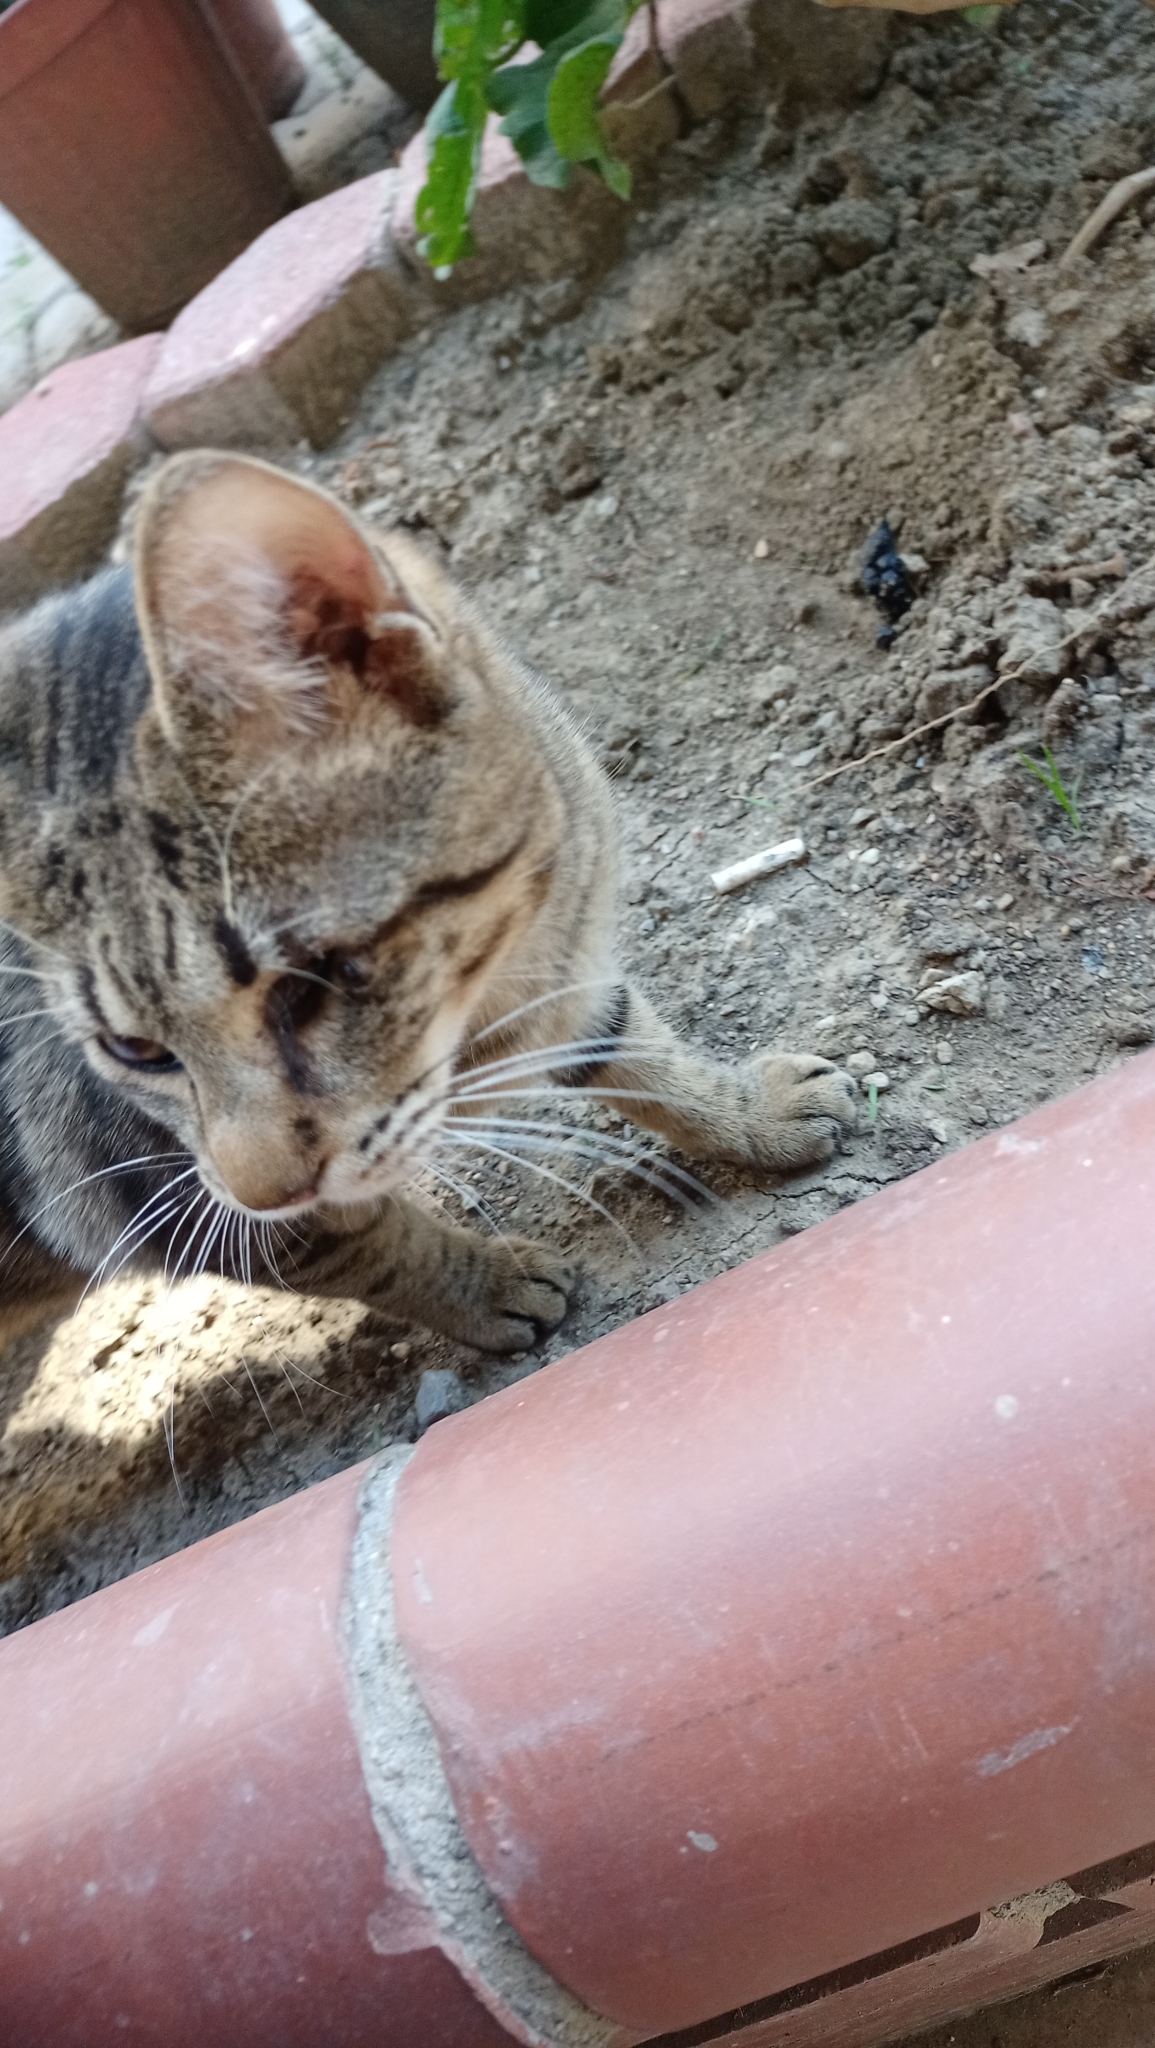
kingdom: Animalia
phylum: Chordata
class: Mammalia
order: Carnivora
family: Felidae
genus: Felis
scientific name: Felis catus
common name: Domestic cat
